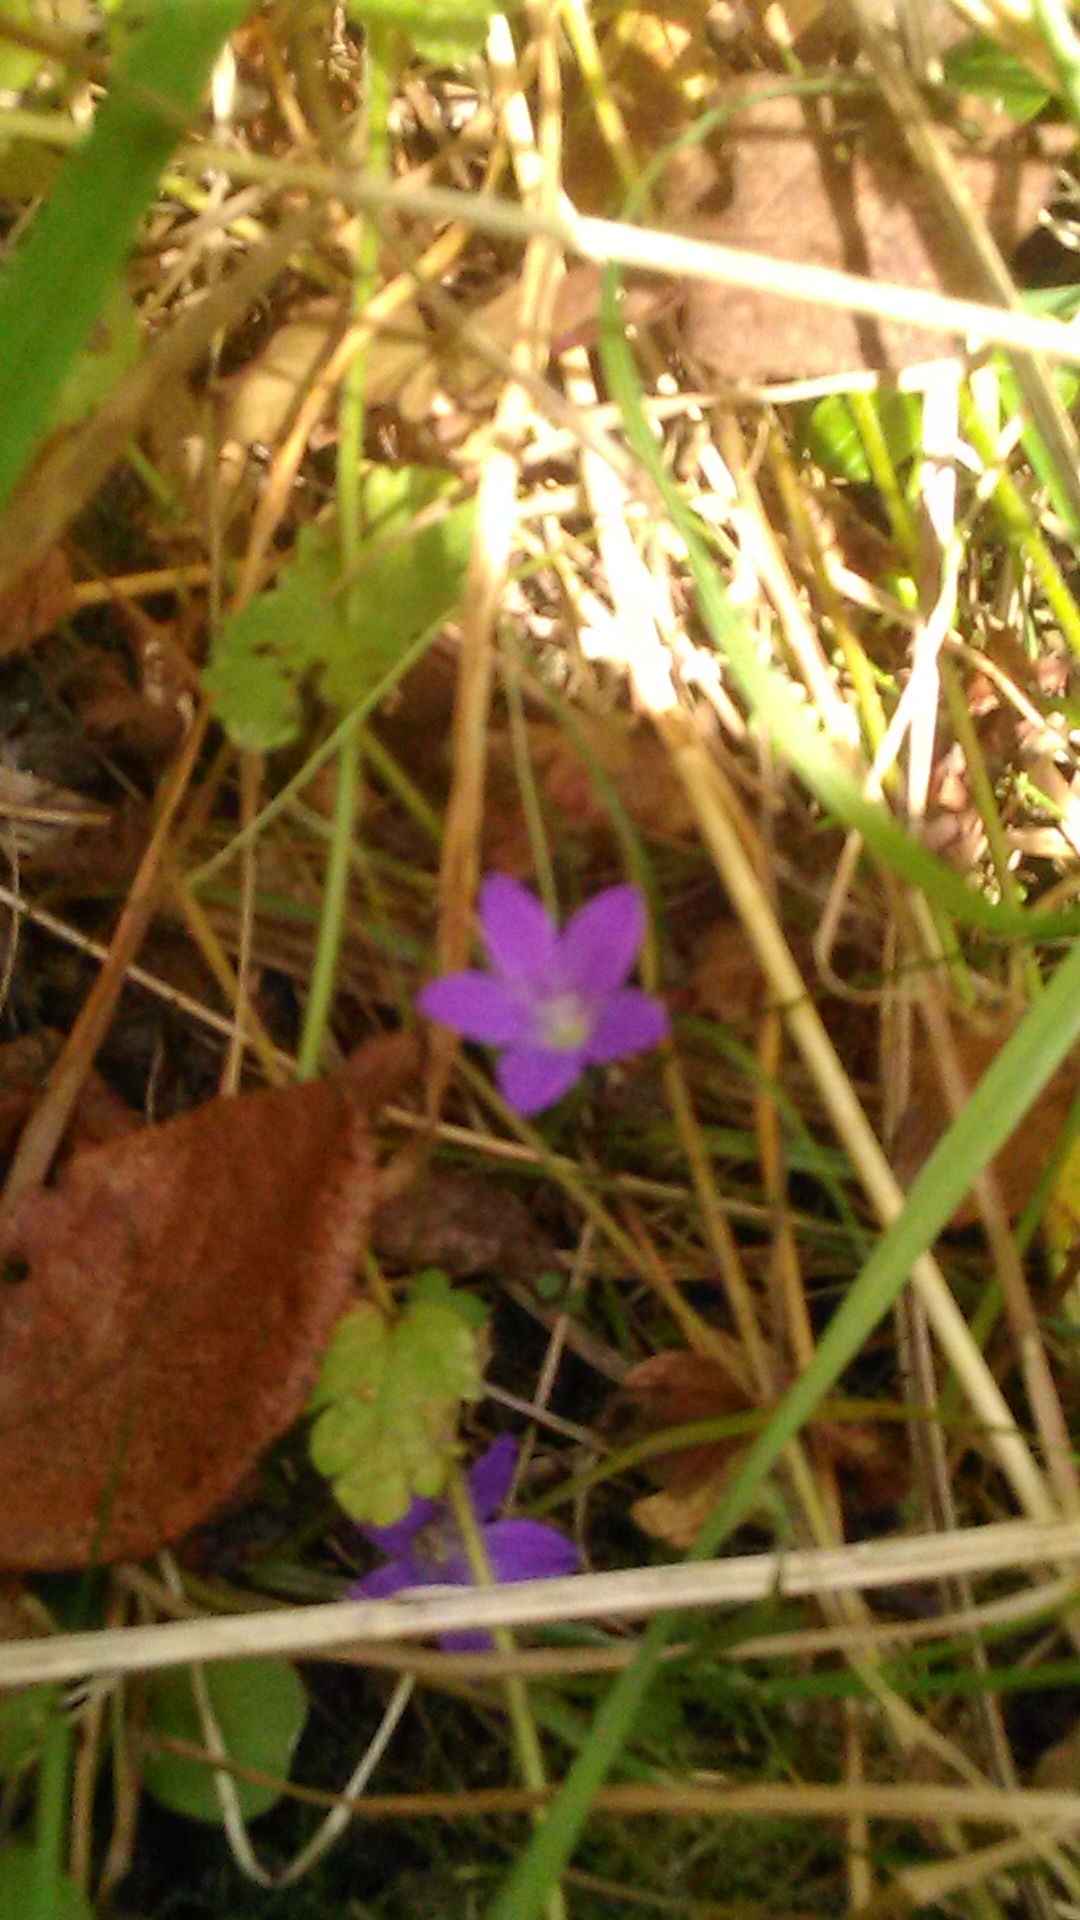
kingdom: Plantae
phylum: Tracheophyta
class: Magnoliopsida
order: Asterales
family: Campanulaceae
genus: Campanula
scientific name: Campanula patula
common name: Spreading bellflower
